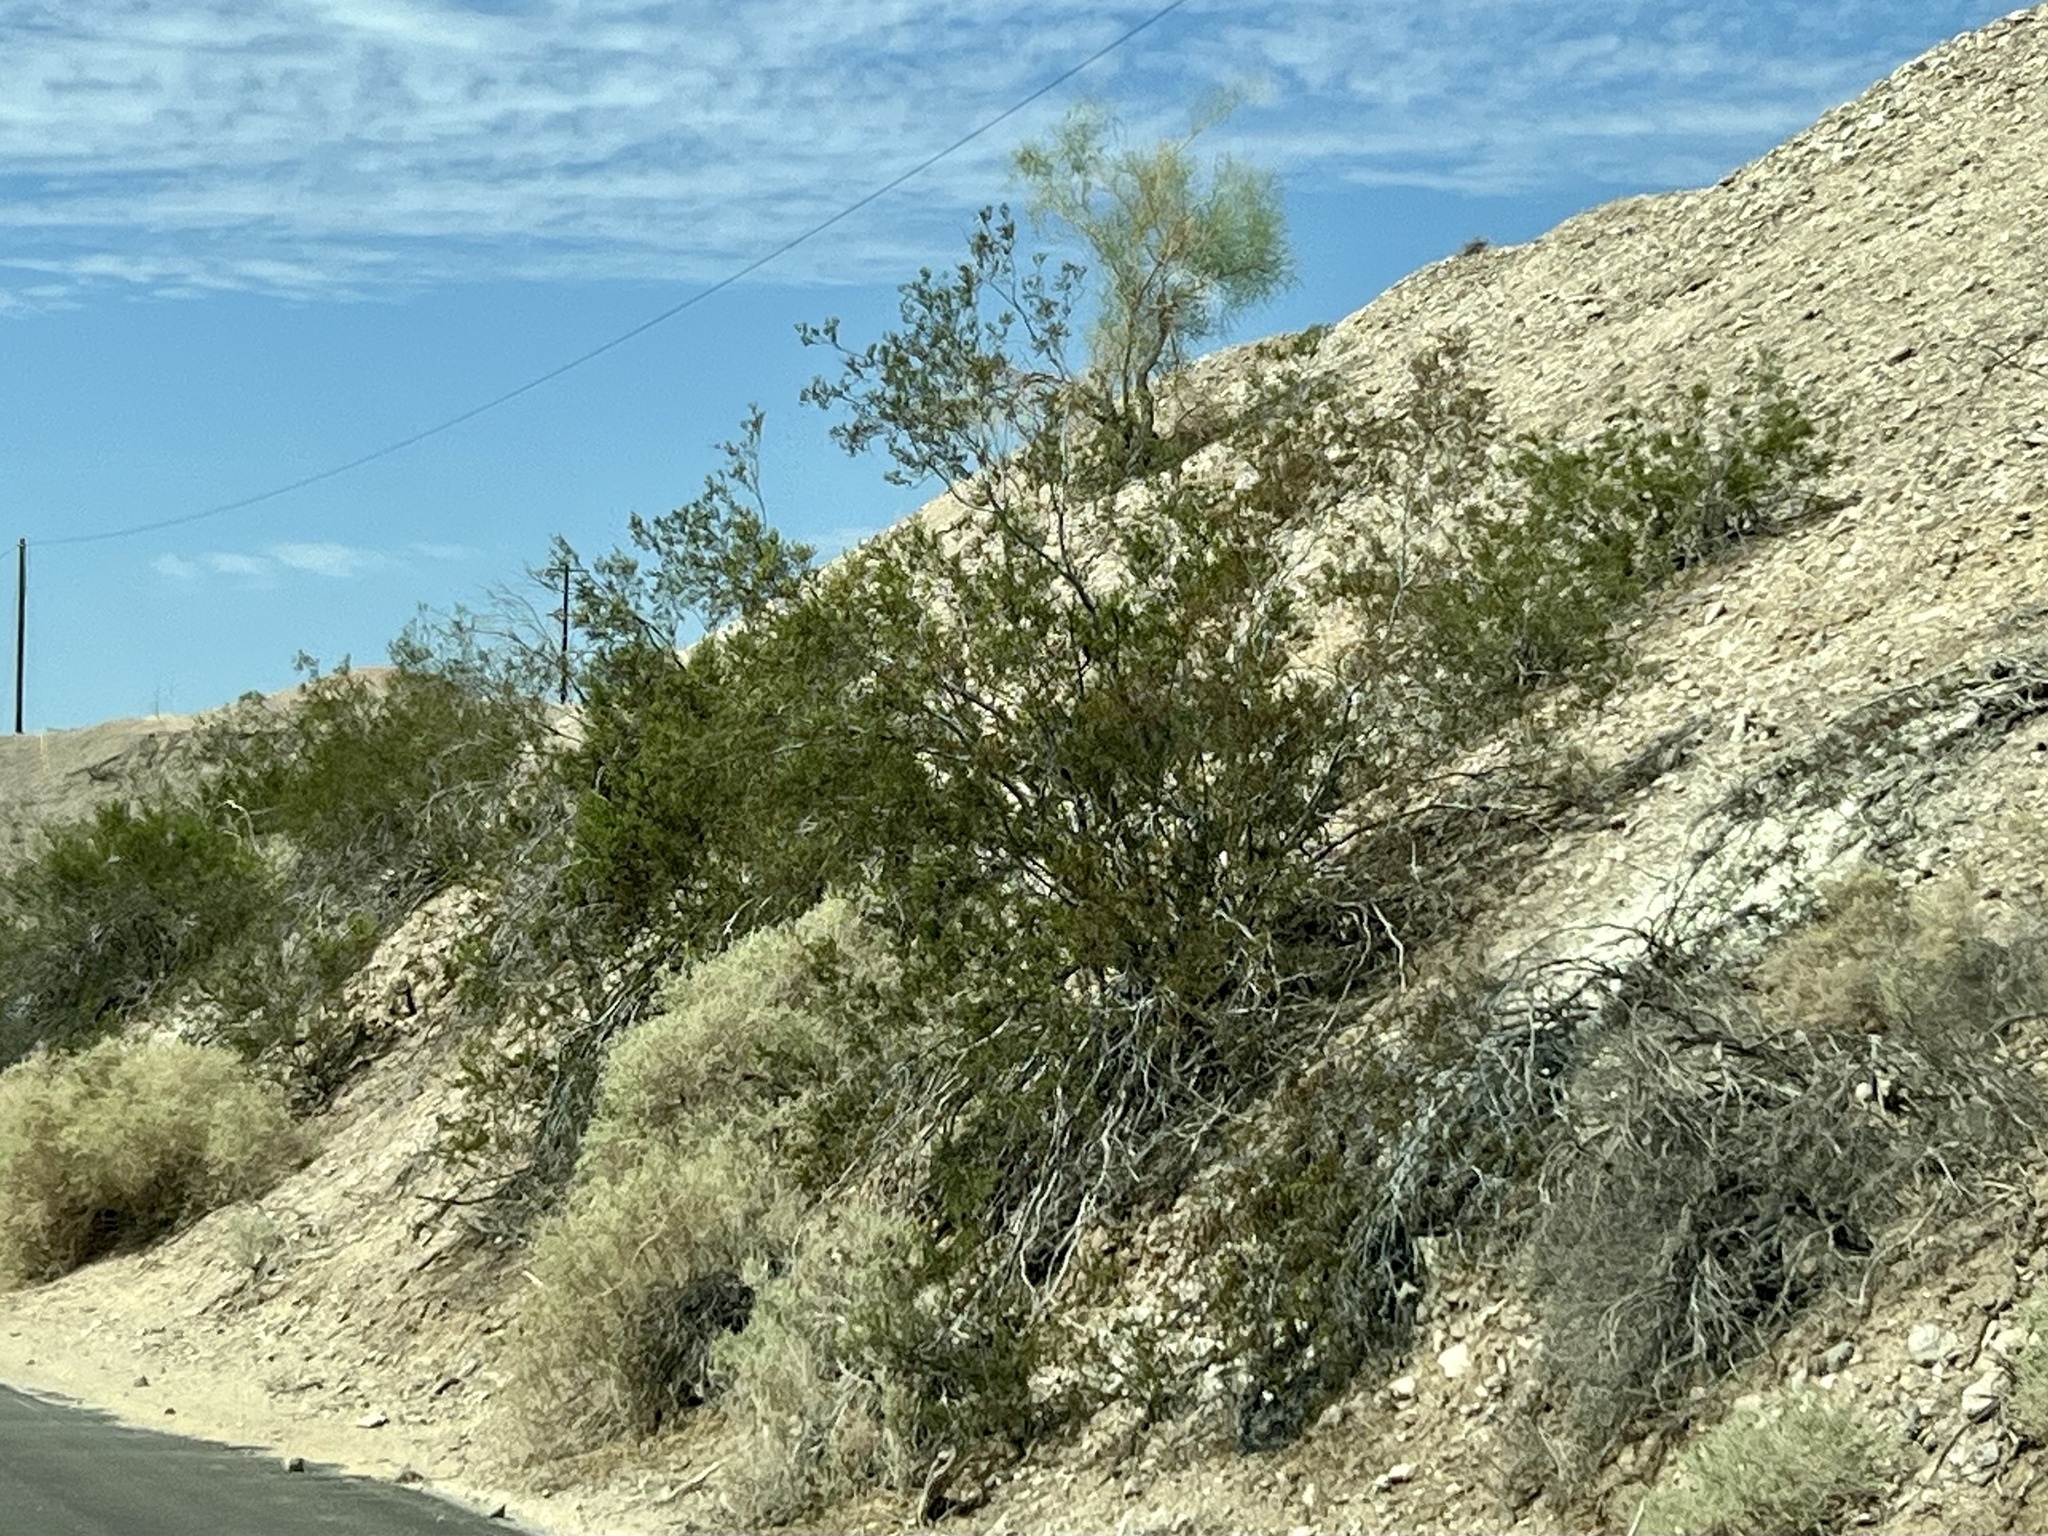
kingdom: Plantae
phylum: Tracheophyta
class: Magnoliopsida
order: Zygophyllales
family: Zygophyllaceae
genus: Larrea
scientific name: Larrea tridentata
